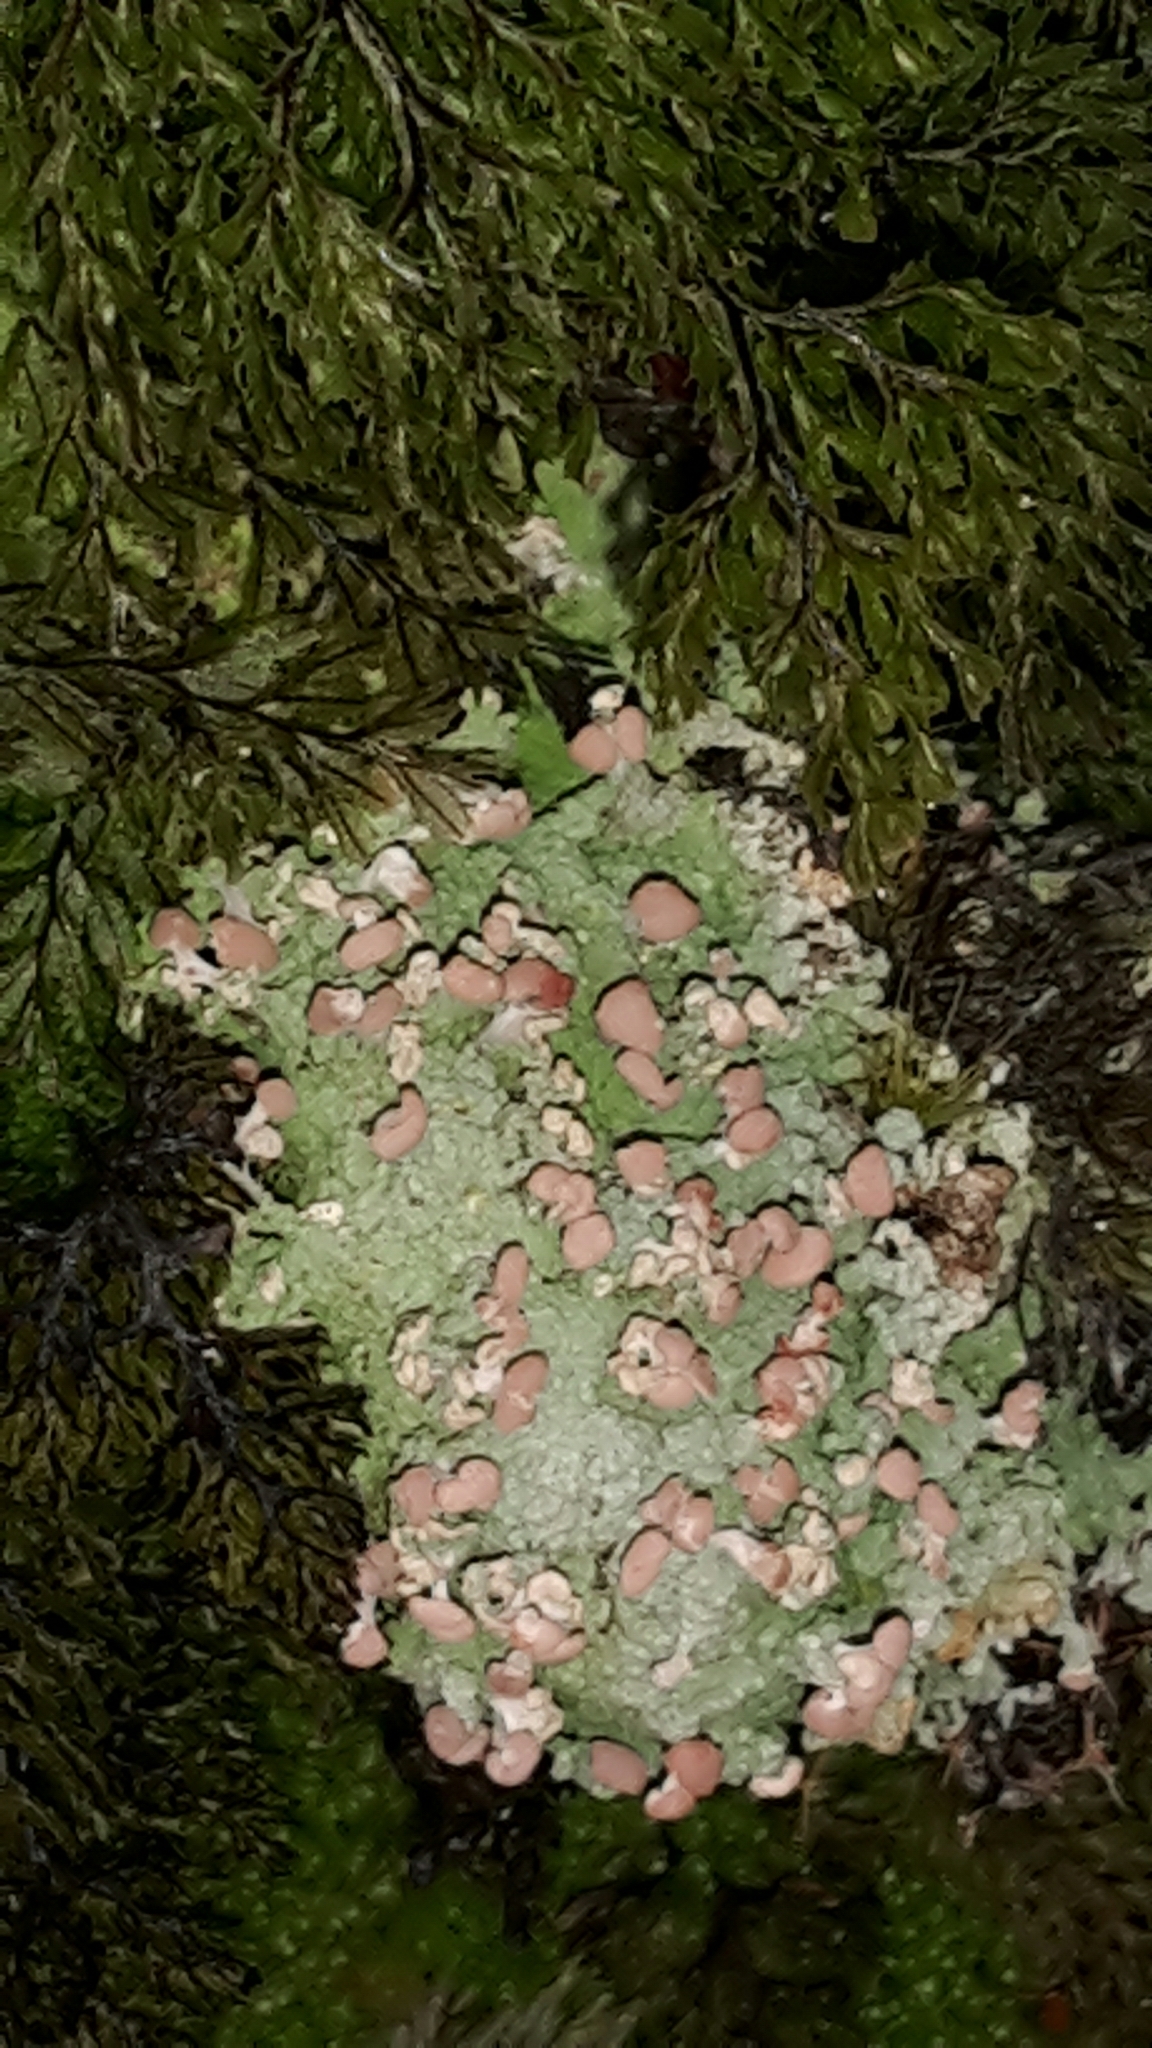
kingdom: Fungi
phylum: Ascomycota
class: Lecanoromycetes
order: Baeomycetales
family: Baeomycetaceae
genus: Baeomyces
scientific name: Baeomyces heteromorphus
